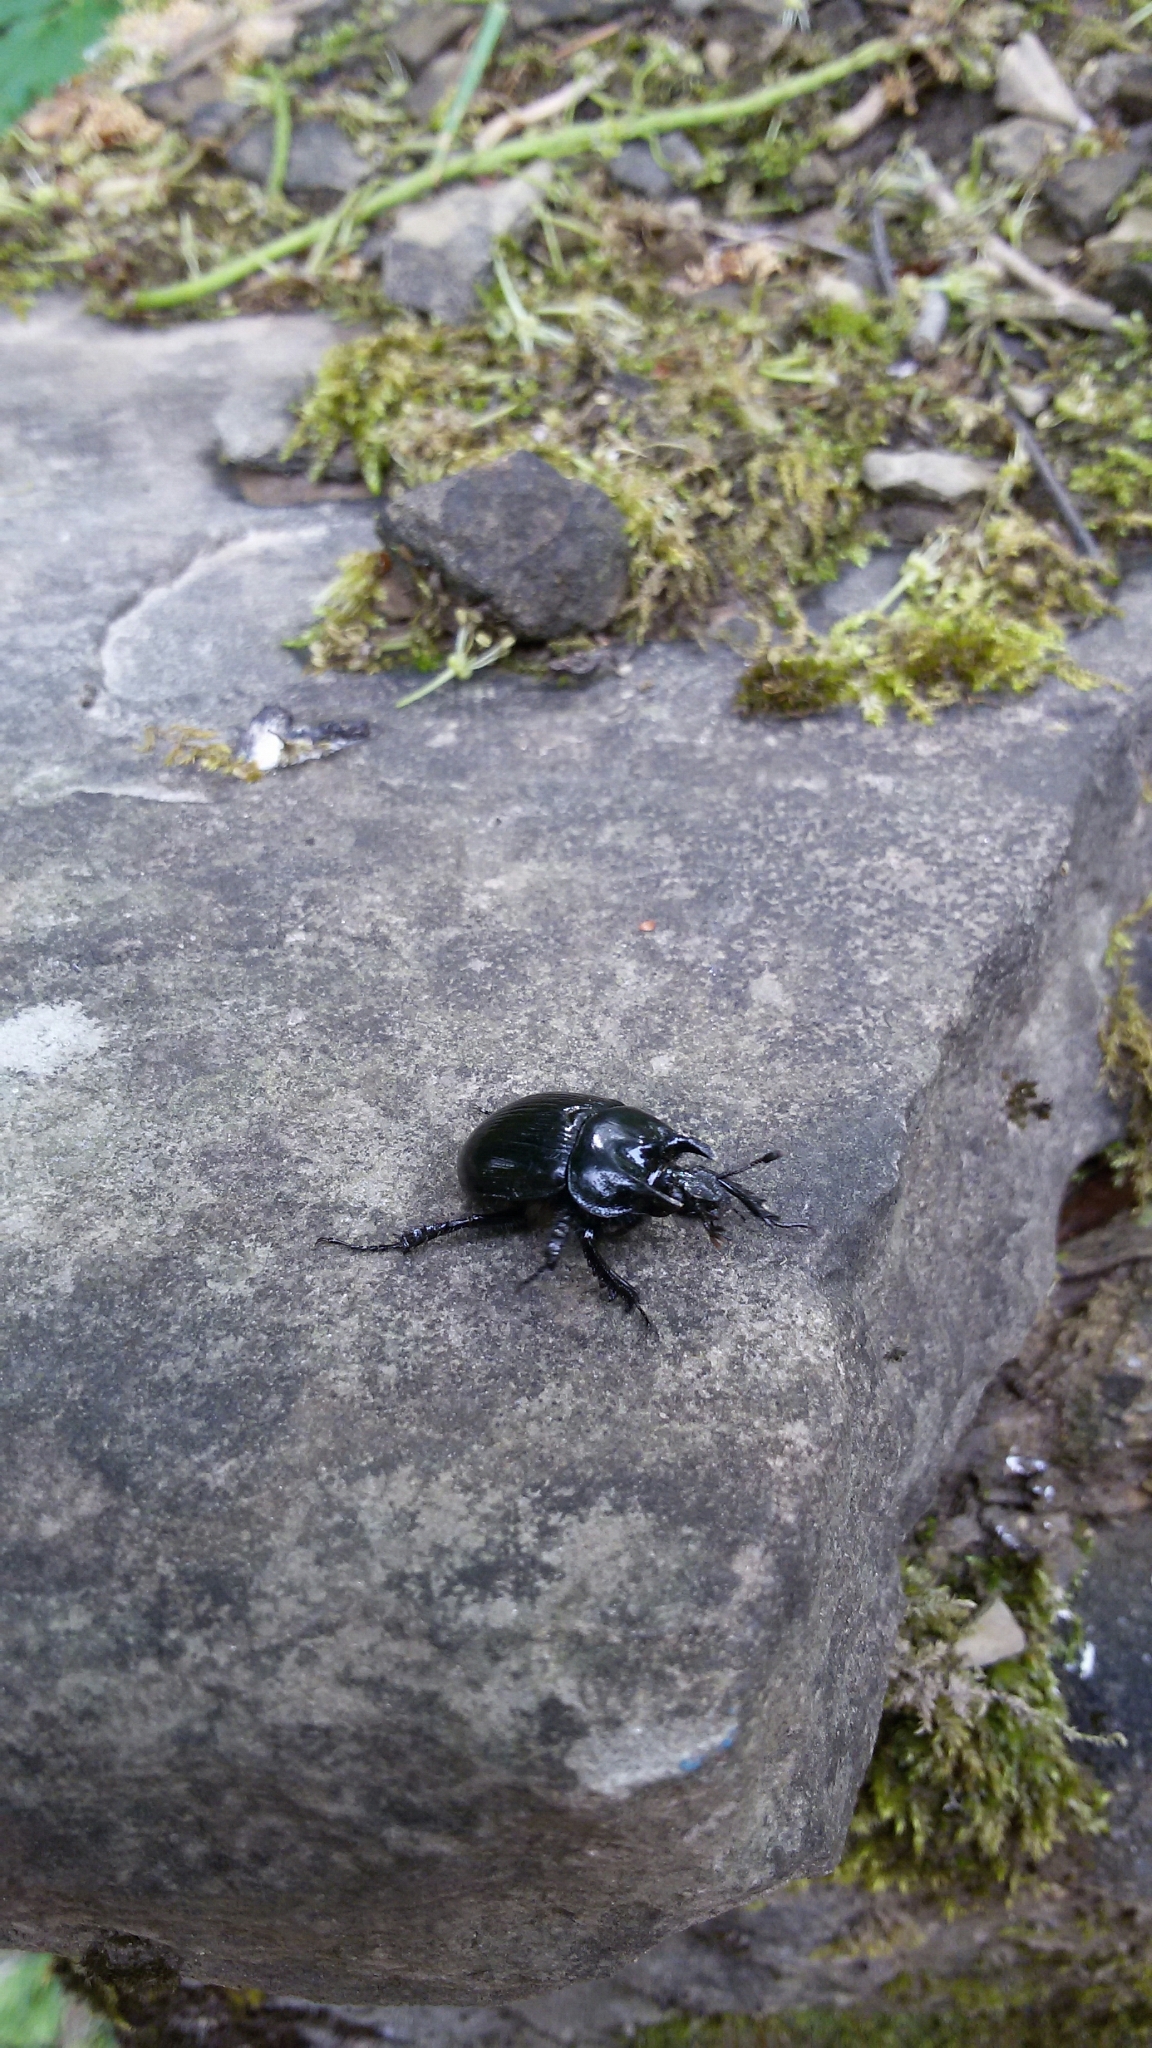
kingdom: Animalia
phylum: Arthropoda
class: Insecta
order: Coleoptera
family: Geotrupidae
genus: Typhaeus
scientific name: Typhaeus typhoeus
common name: Minotaur beetle
